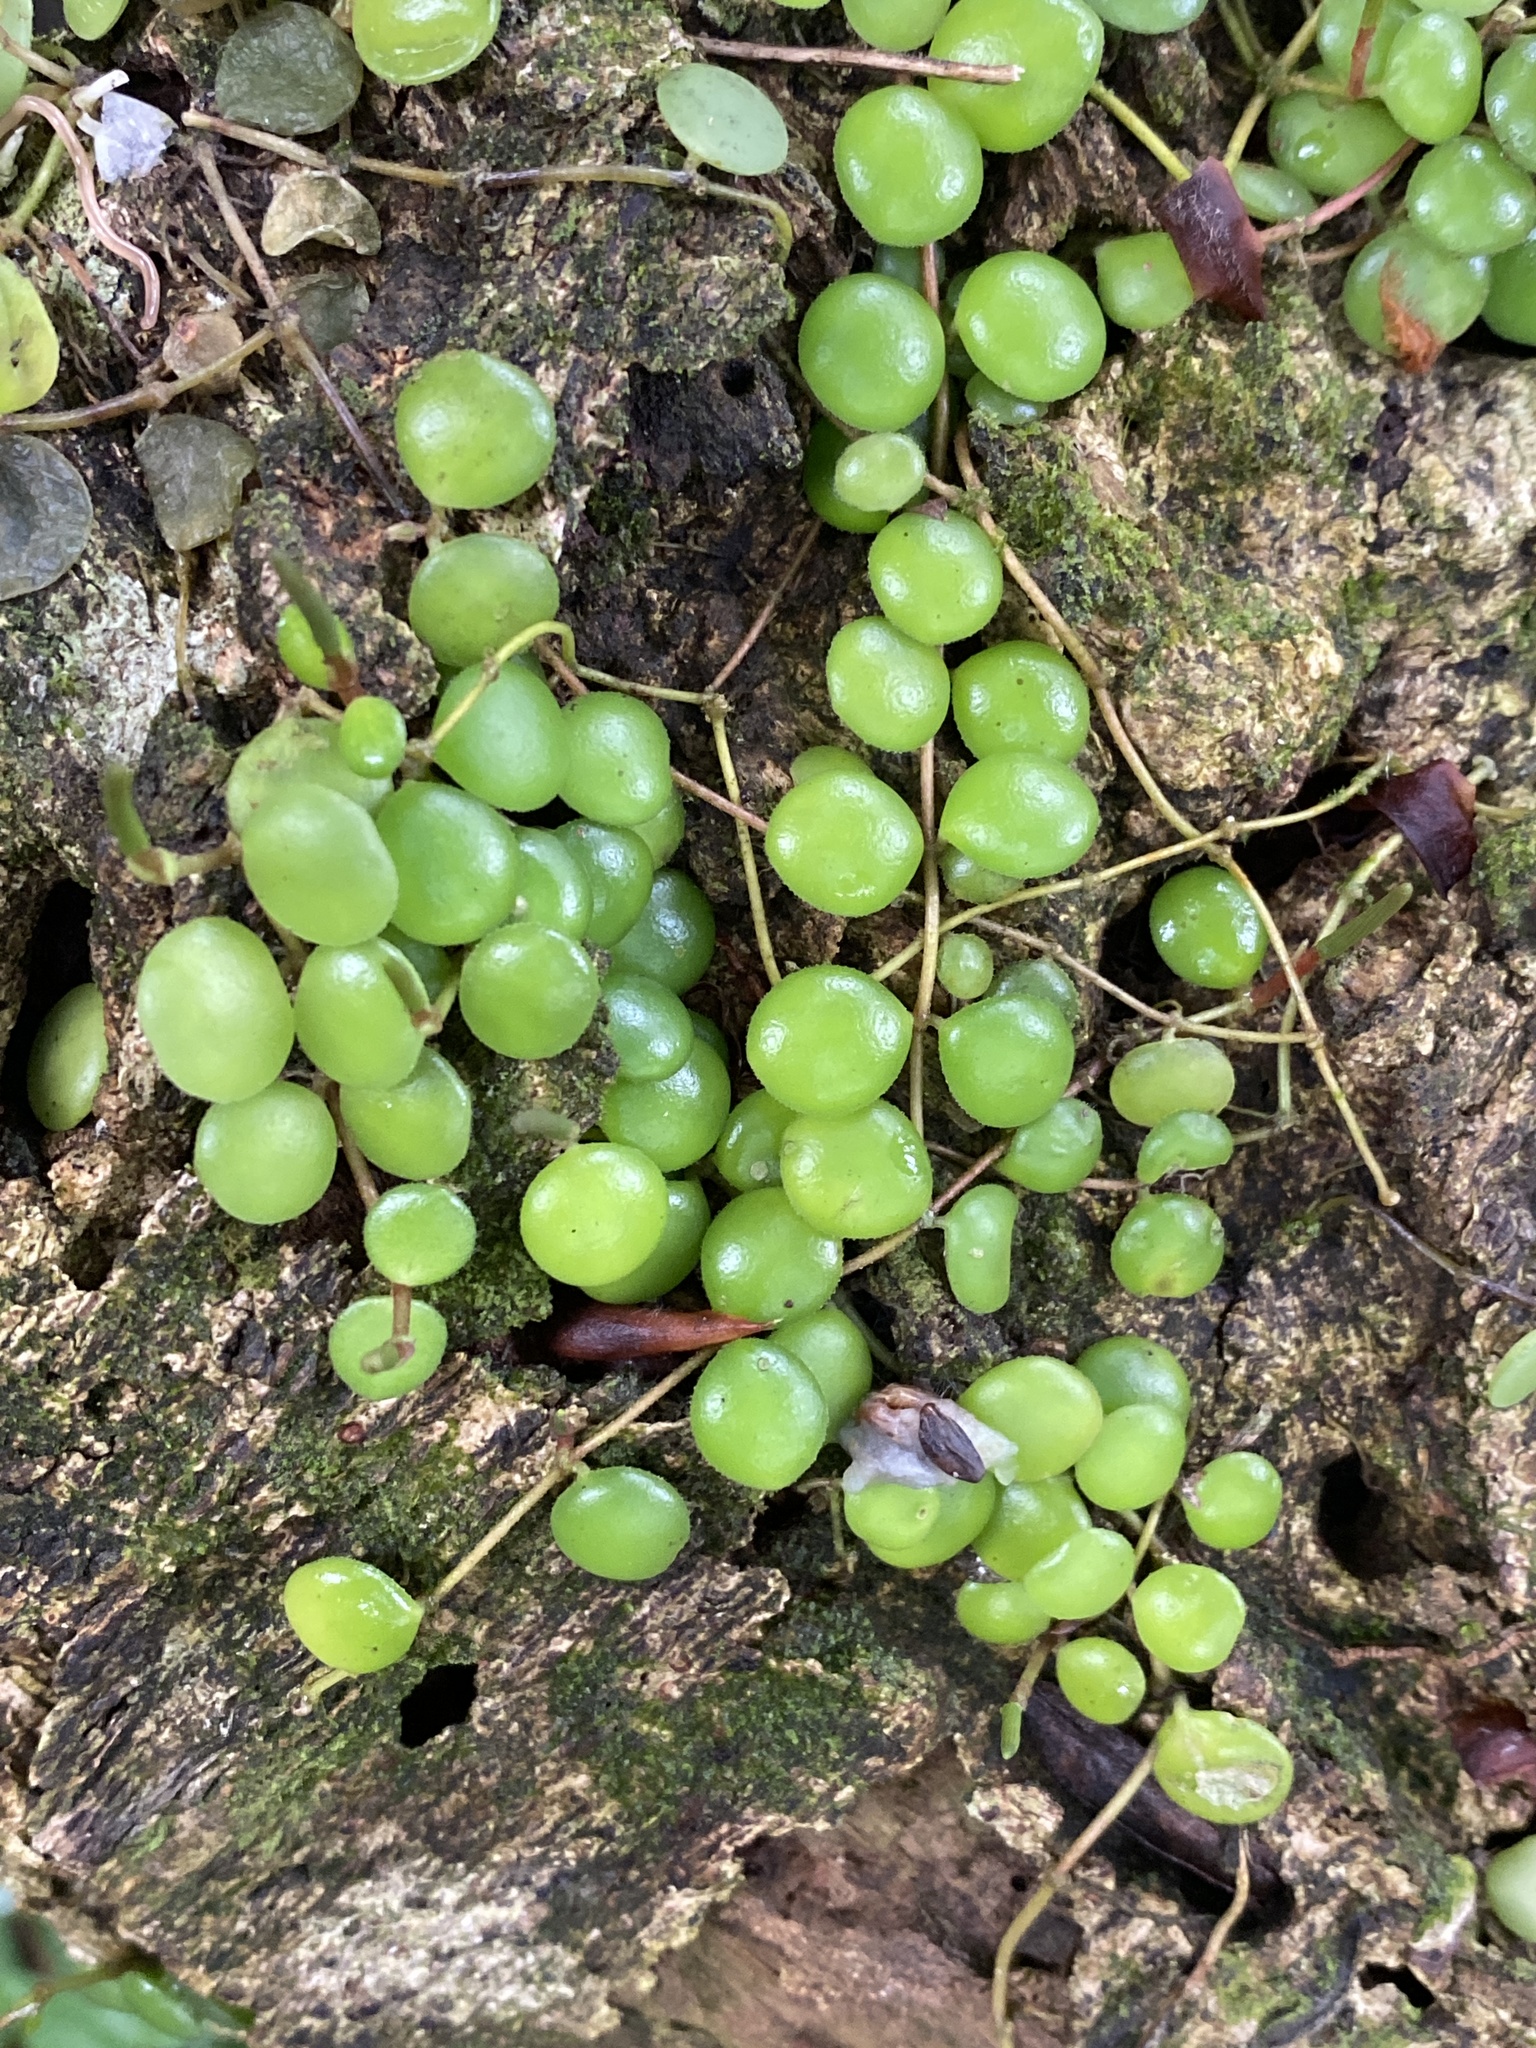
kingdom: Plantae
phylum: Tracheophyta
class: Magnoliopsida
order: Piperales
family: Piperaceae
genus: Peperomia
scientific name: Peperomia cyclophylla
